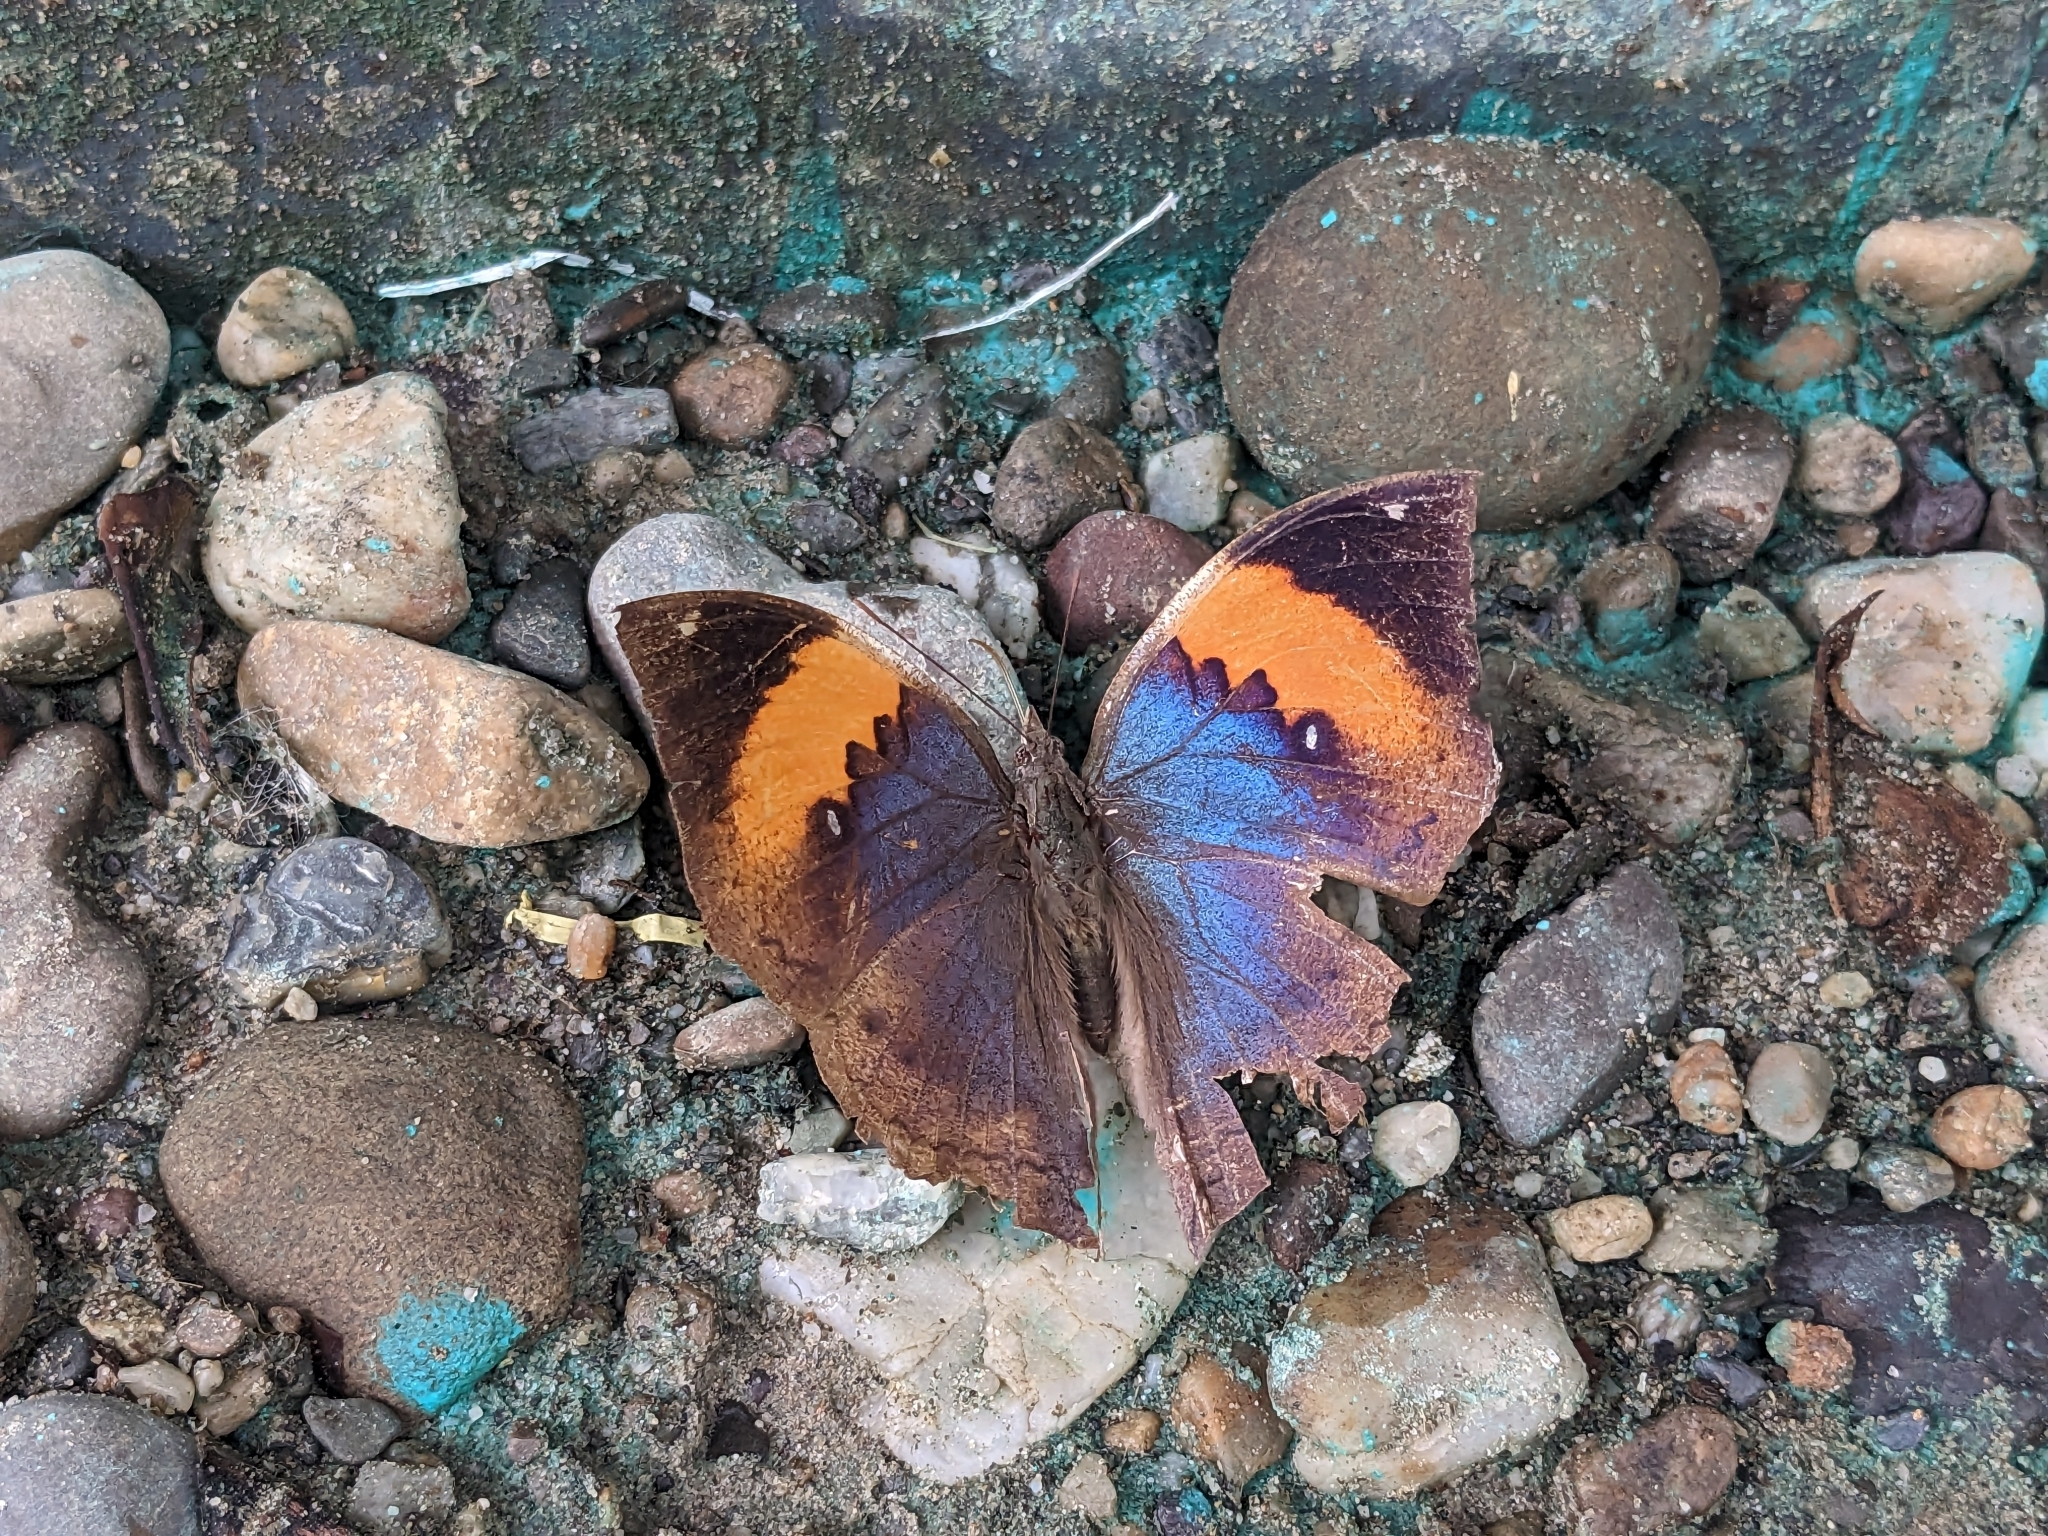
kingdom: Animalia
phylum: Arthropoda
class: Insecta
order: Lepidoptera
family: Nymphalidae
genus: Kallima
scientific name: Kallima inachus
